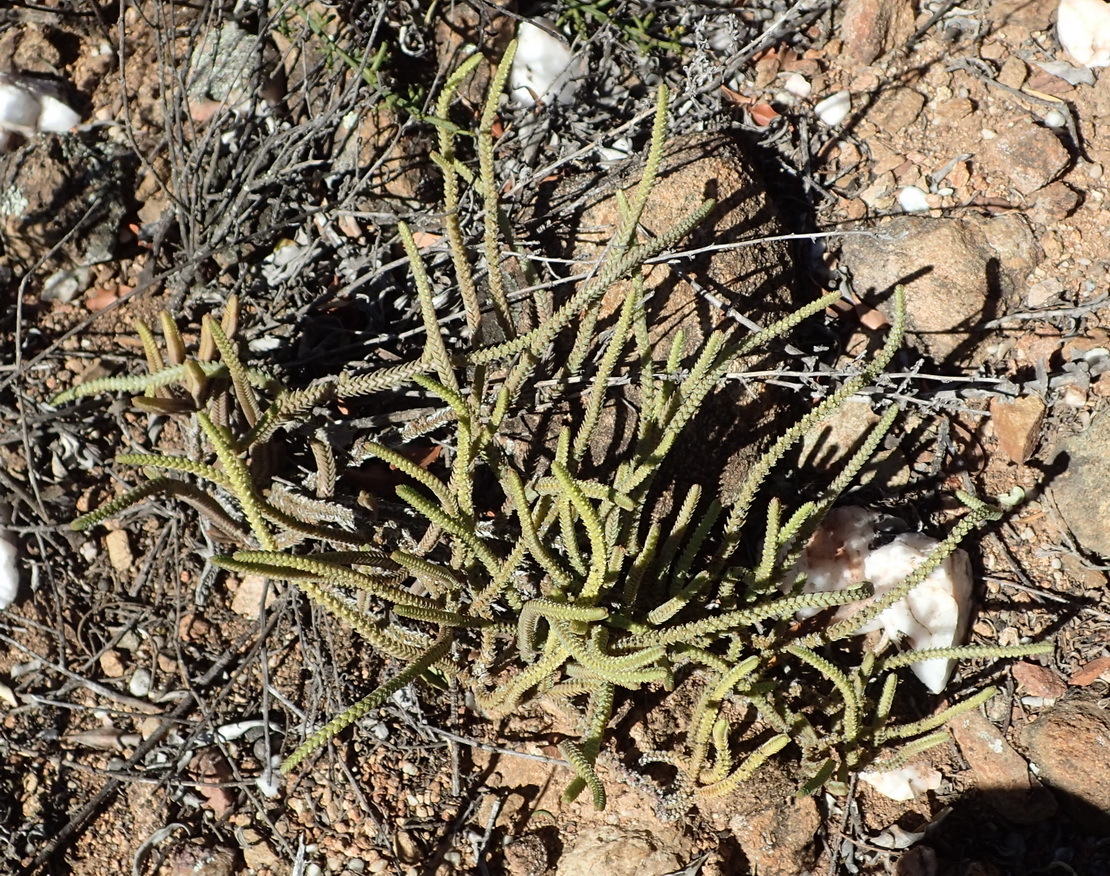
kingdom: Plantae
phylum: Tracheophyta
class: Magnoliopsida
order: Saxifragales
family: Crassulaceae
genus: Crassula
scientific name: Crassula muscosa
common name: Toy-cypress
